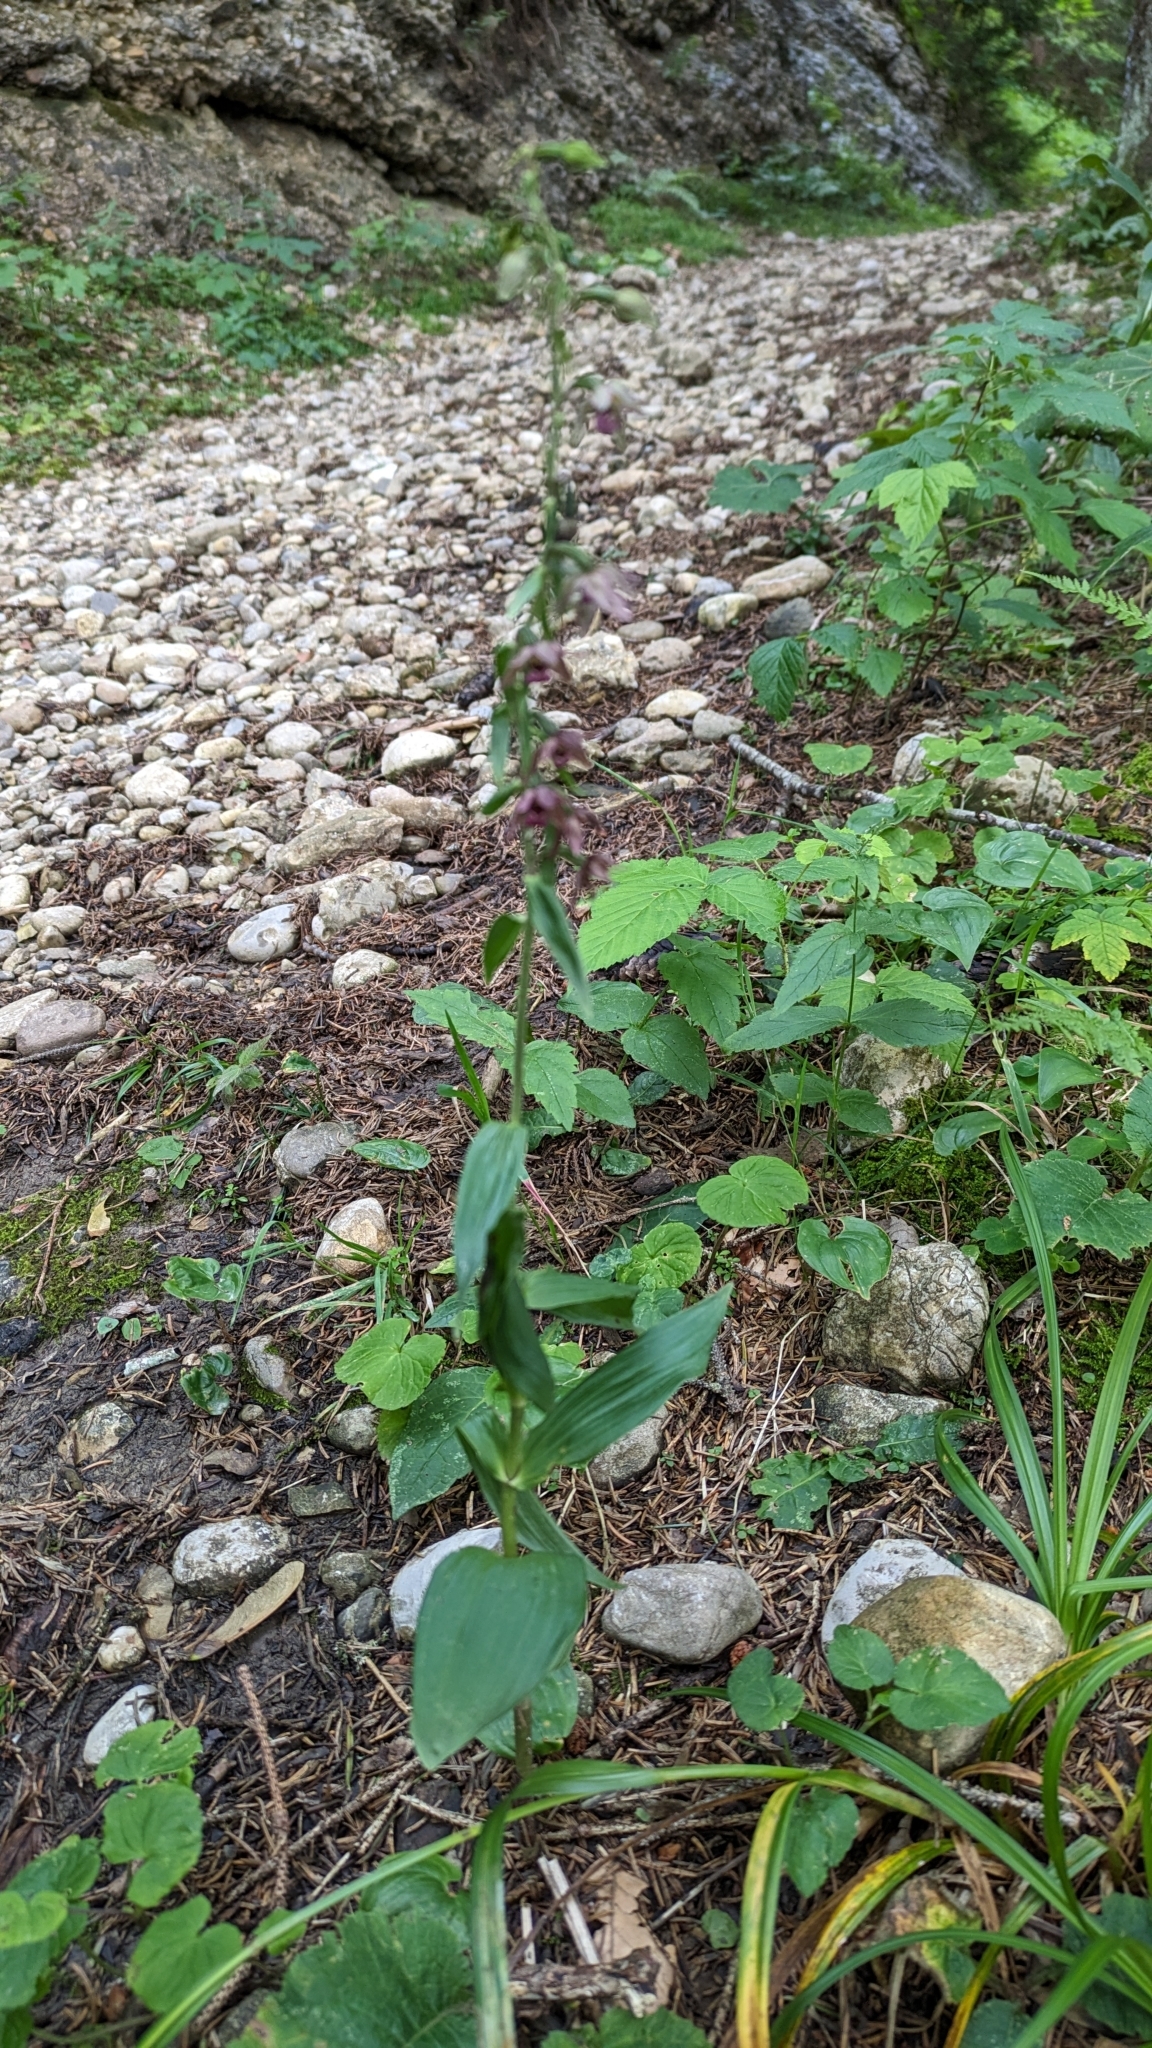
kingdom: Plantae
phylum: Tracheophyta
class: Liliopsida
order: Asparagales
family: Orchidaceae
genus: Epipactis
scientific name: Epipactis helleborine
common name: Broad-leaved helleborine
